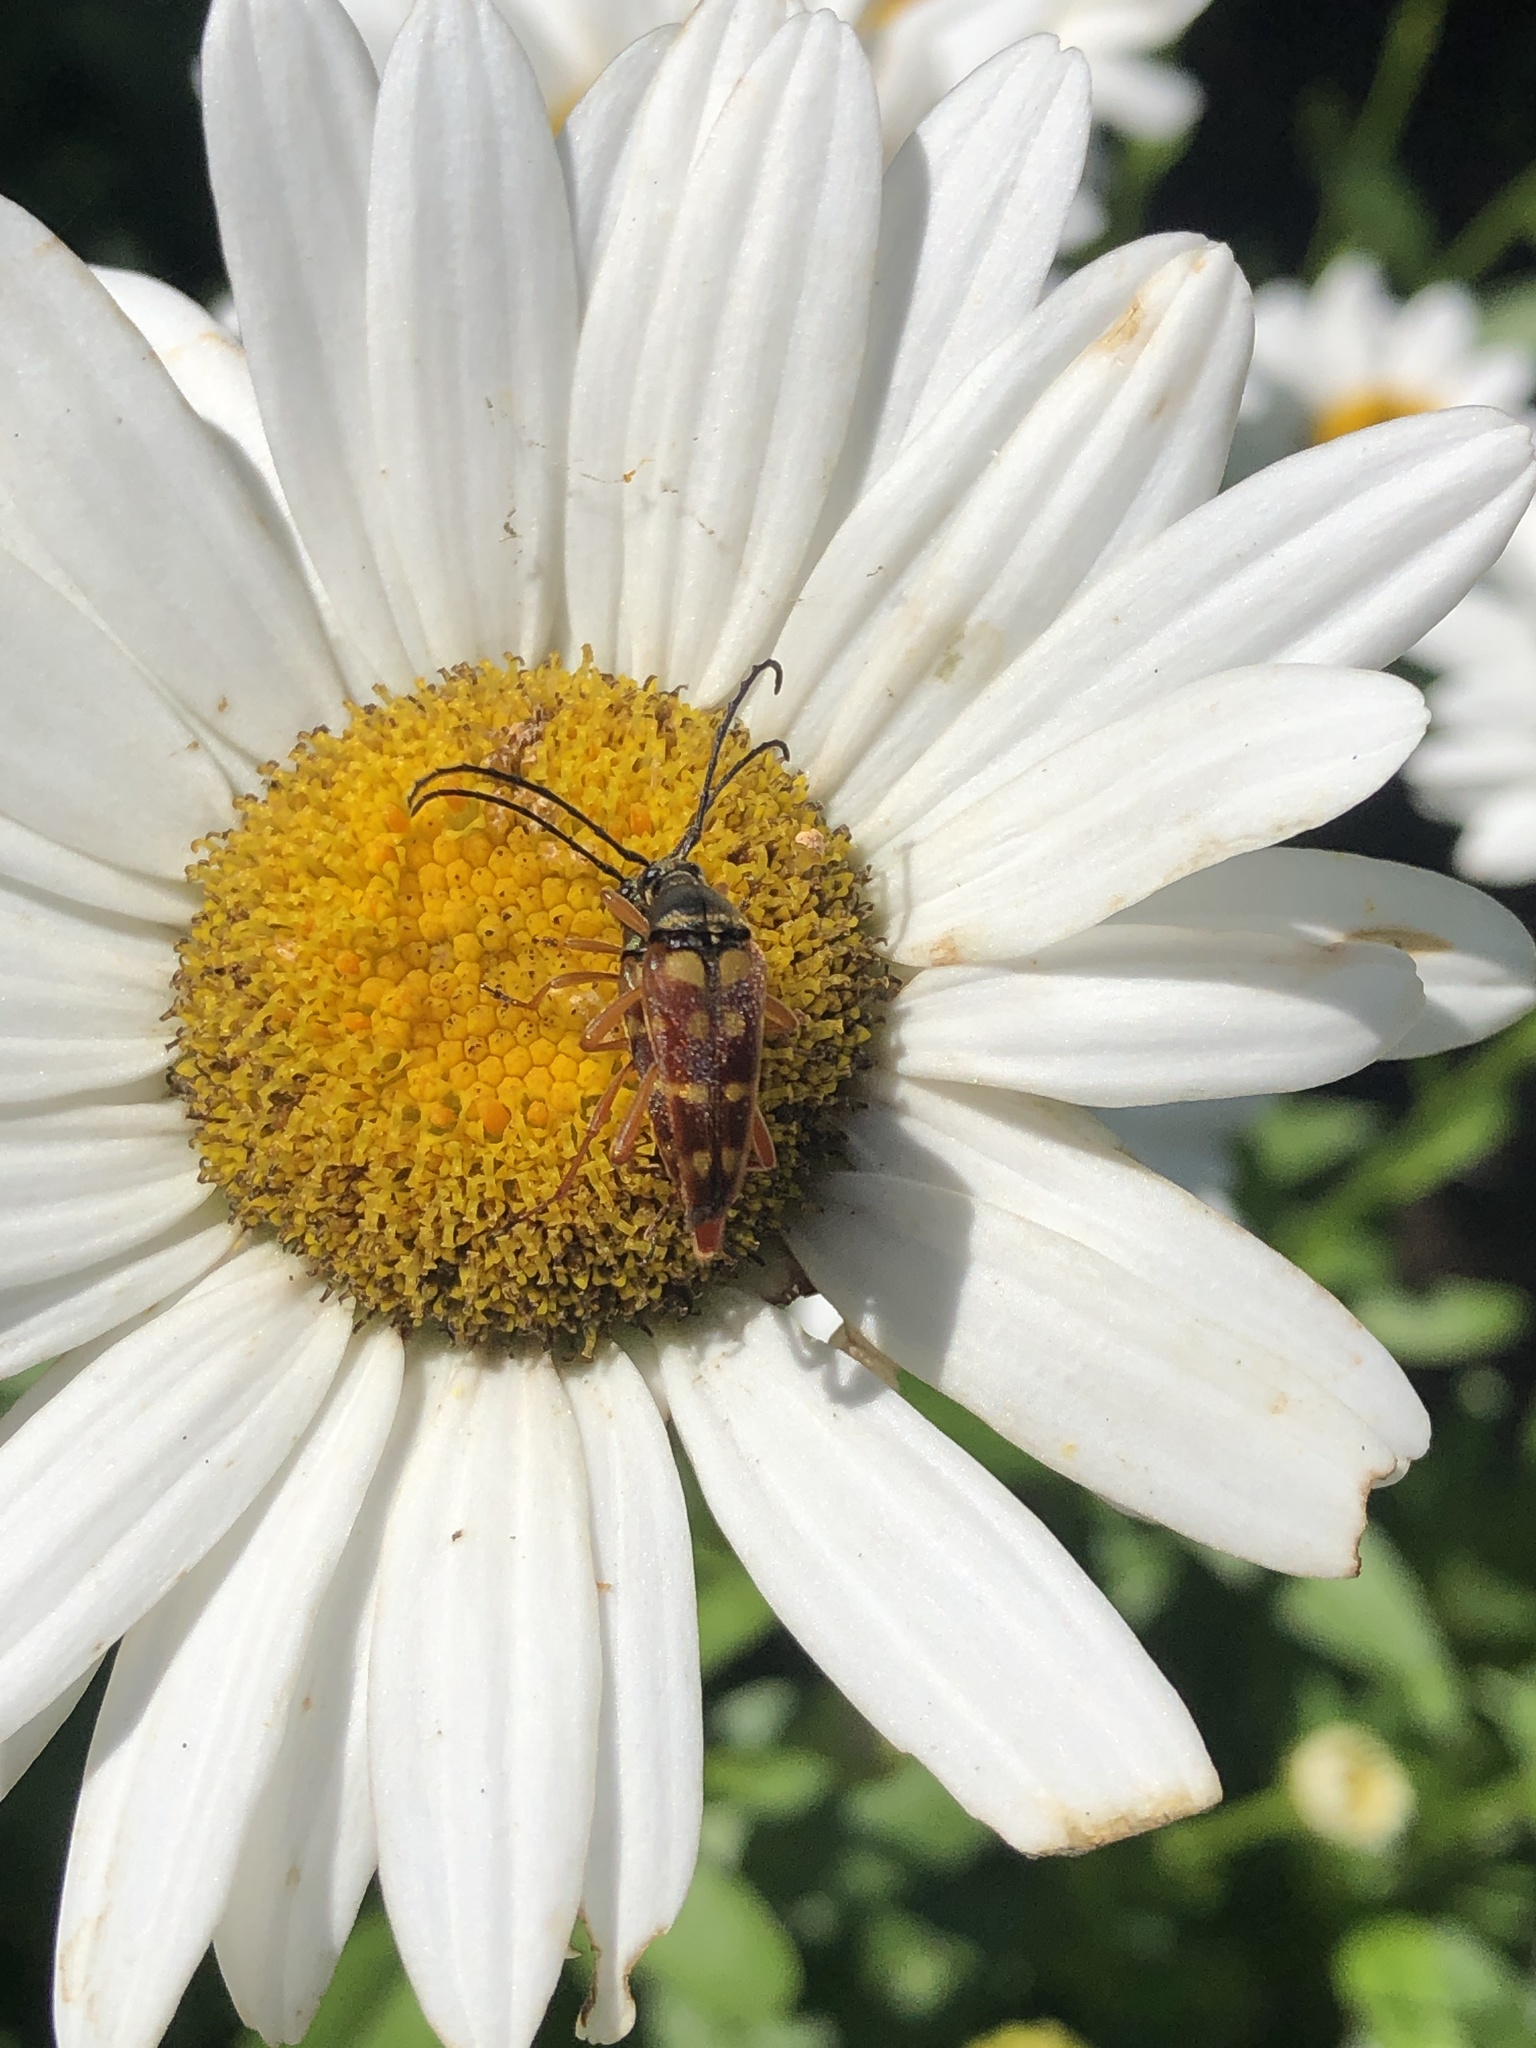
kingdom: Animalia
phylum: Arthropoda
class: Insecta
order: Coleoptera
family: Cerambycidae
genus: Typocerus
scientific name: Typocerus velutinus
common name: Banded longhorn beetle
